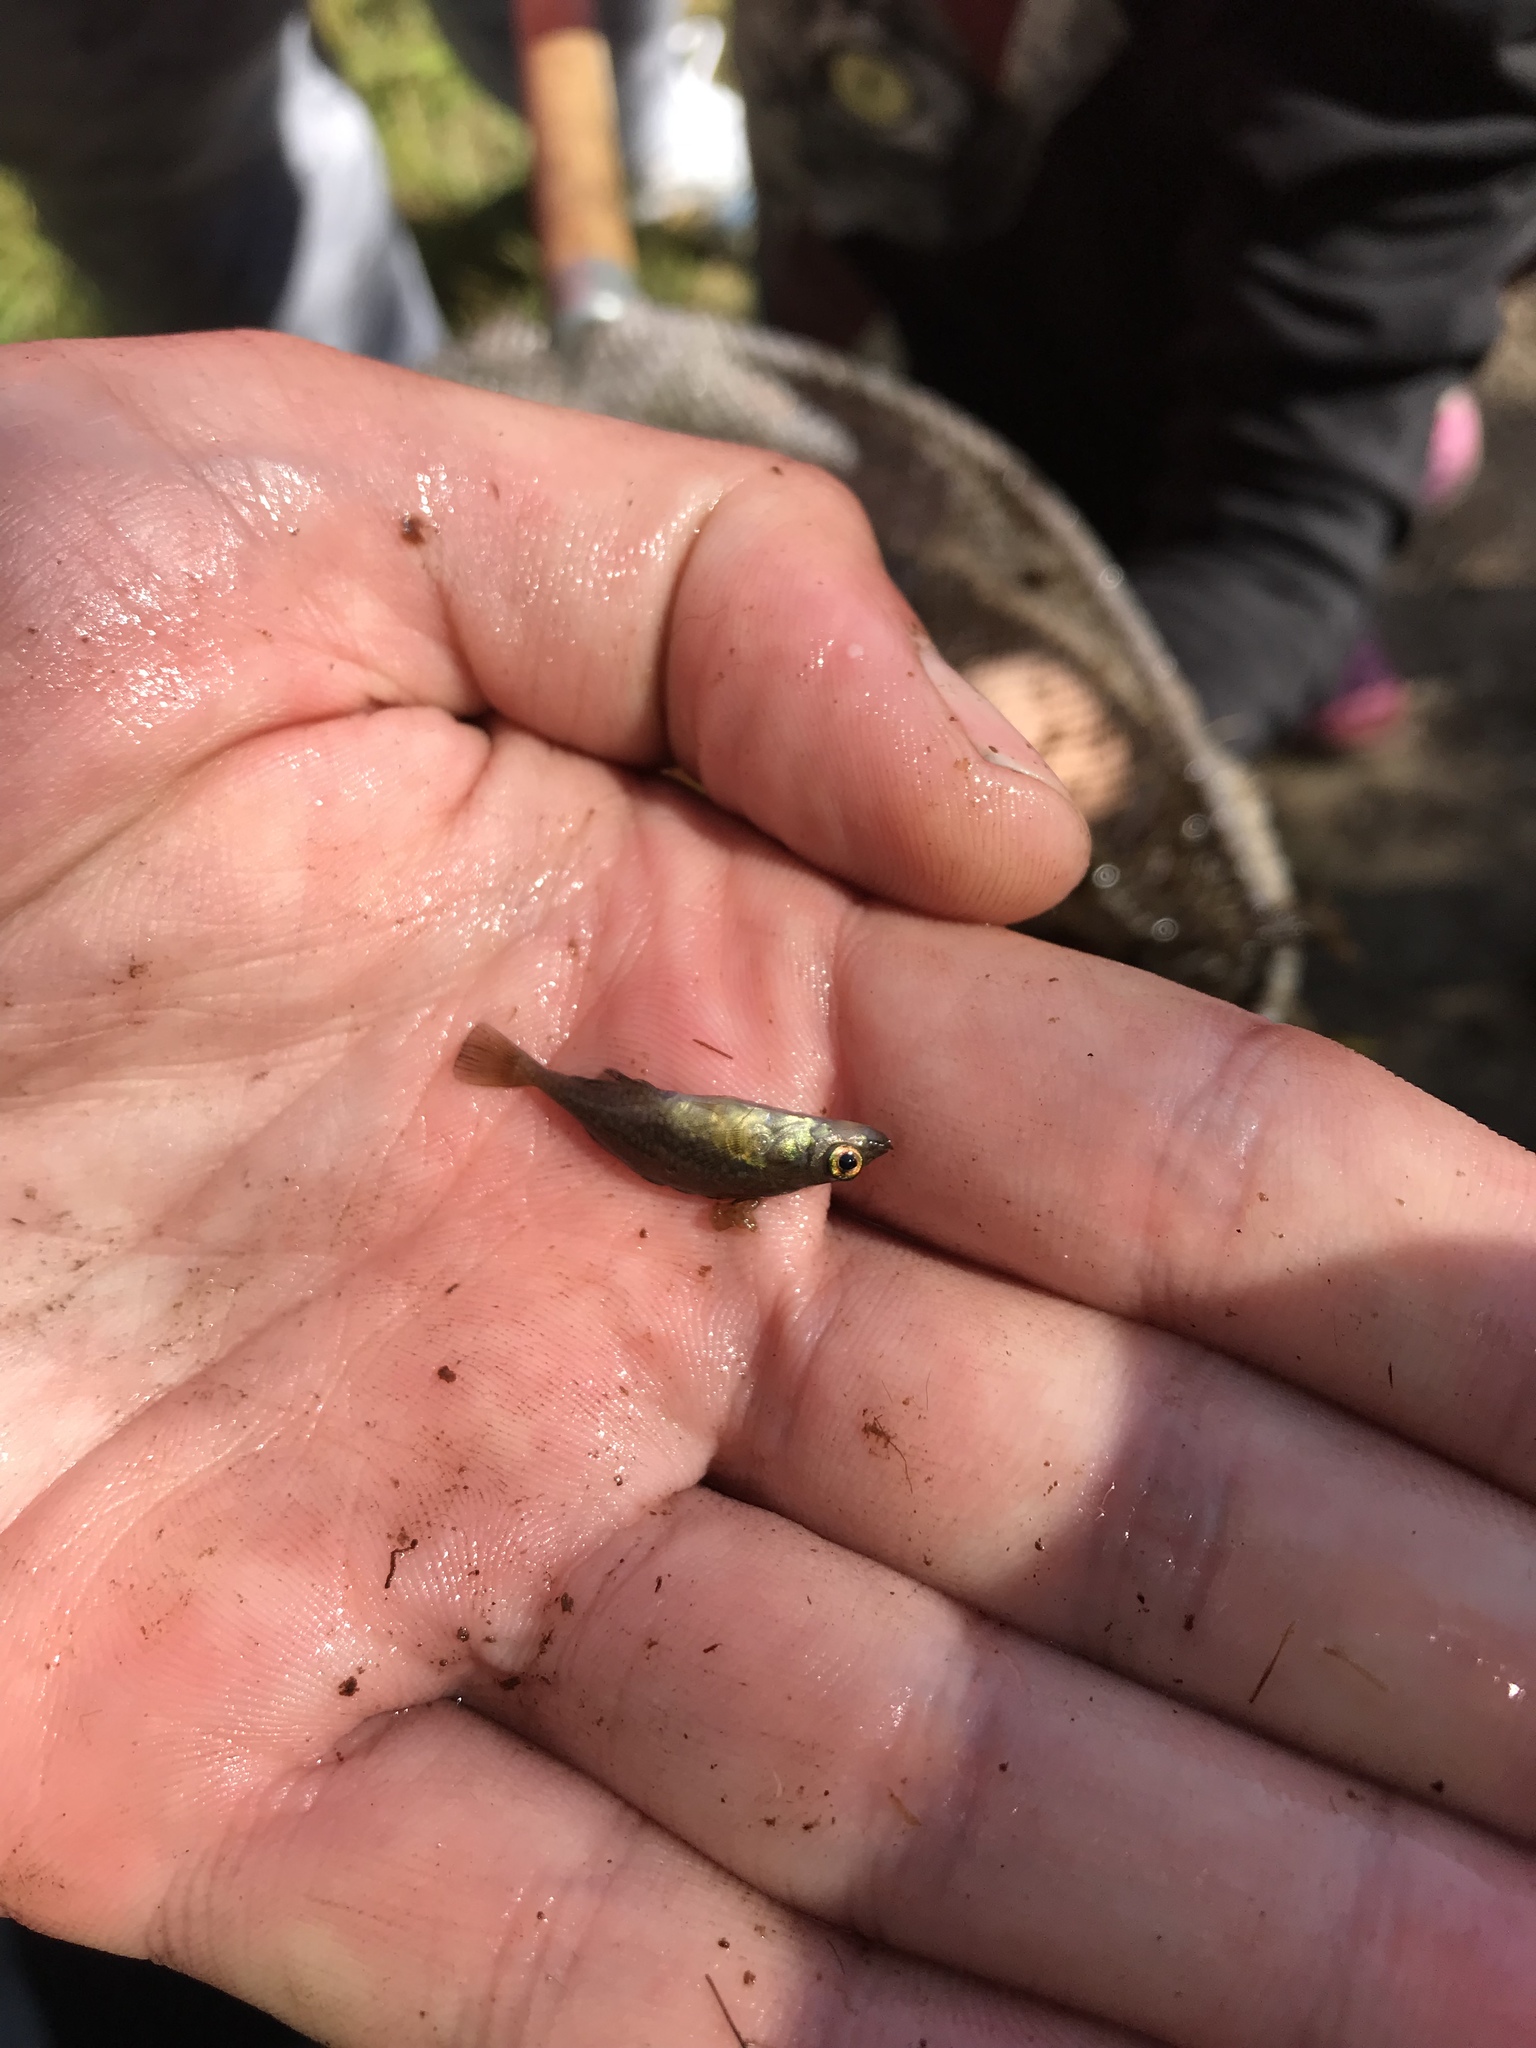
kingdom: Animalia
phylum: Chordata
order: Gasterosteiformes
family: Gasterosteidae
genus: Culaea
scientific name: Culaea inconstans
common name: Brook stickleback
